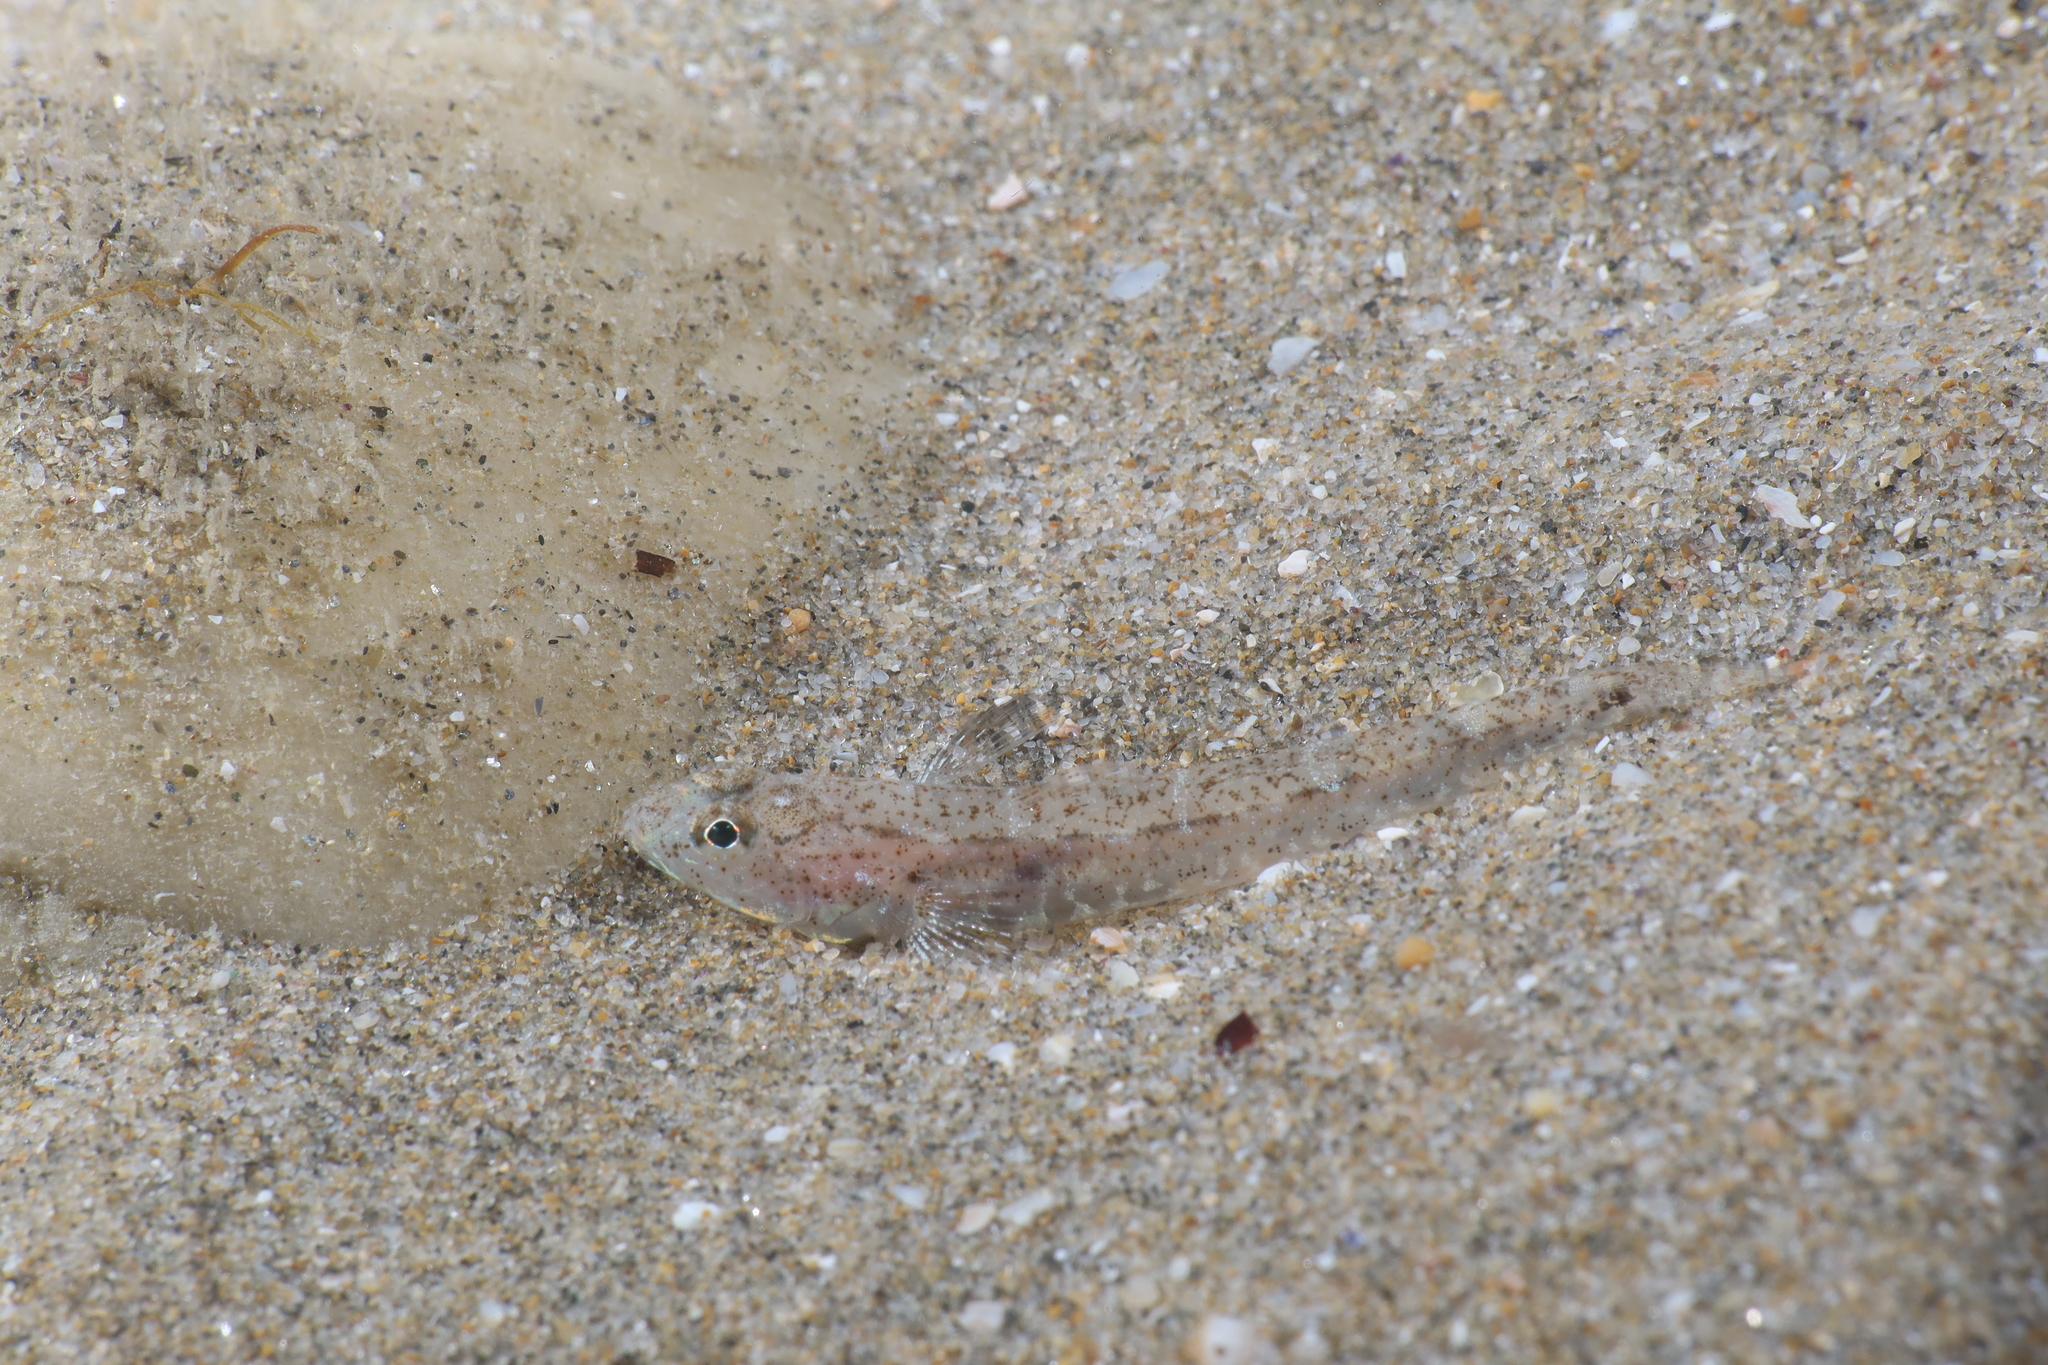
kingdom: Animalia
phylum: Chordata
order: Perciformes
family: Gobiidae
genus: Pomatoschistus
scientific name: Pomatoschistus marmoratus
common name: Marbled goby
